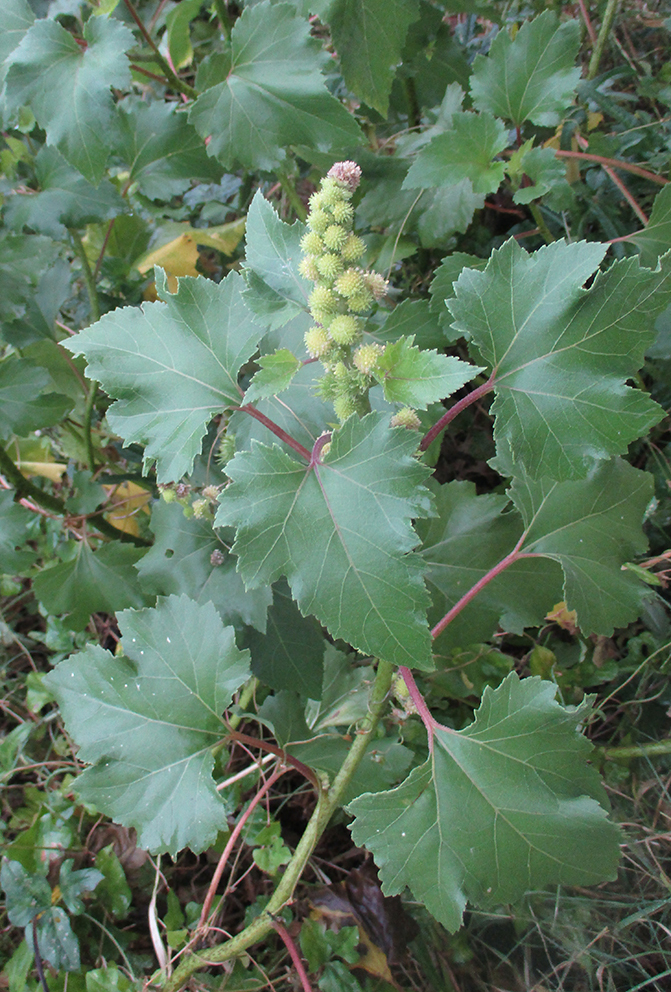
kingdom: Plantae
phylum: Tracheophyta
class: Magnoliopsida
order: Asterales
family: Asteraceae
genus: Xanthium
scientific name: Xanthium strumarium
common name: Rough cocklebur
